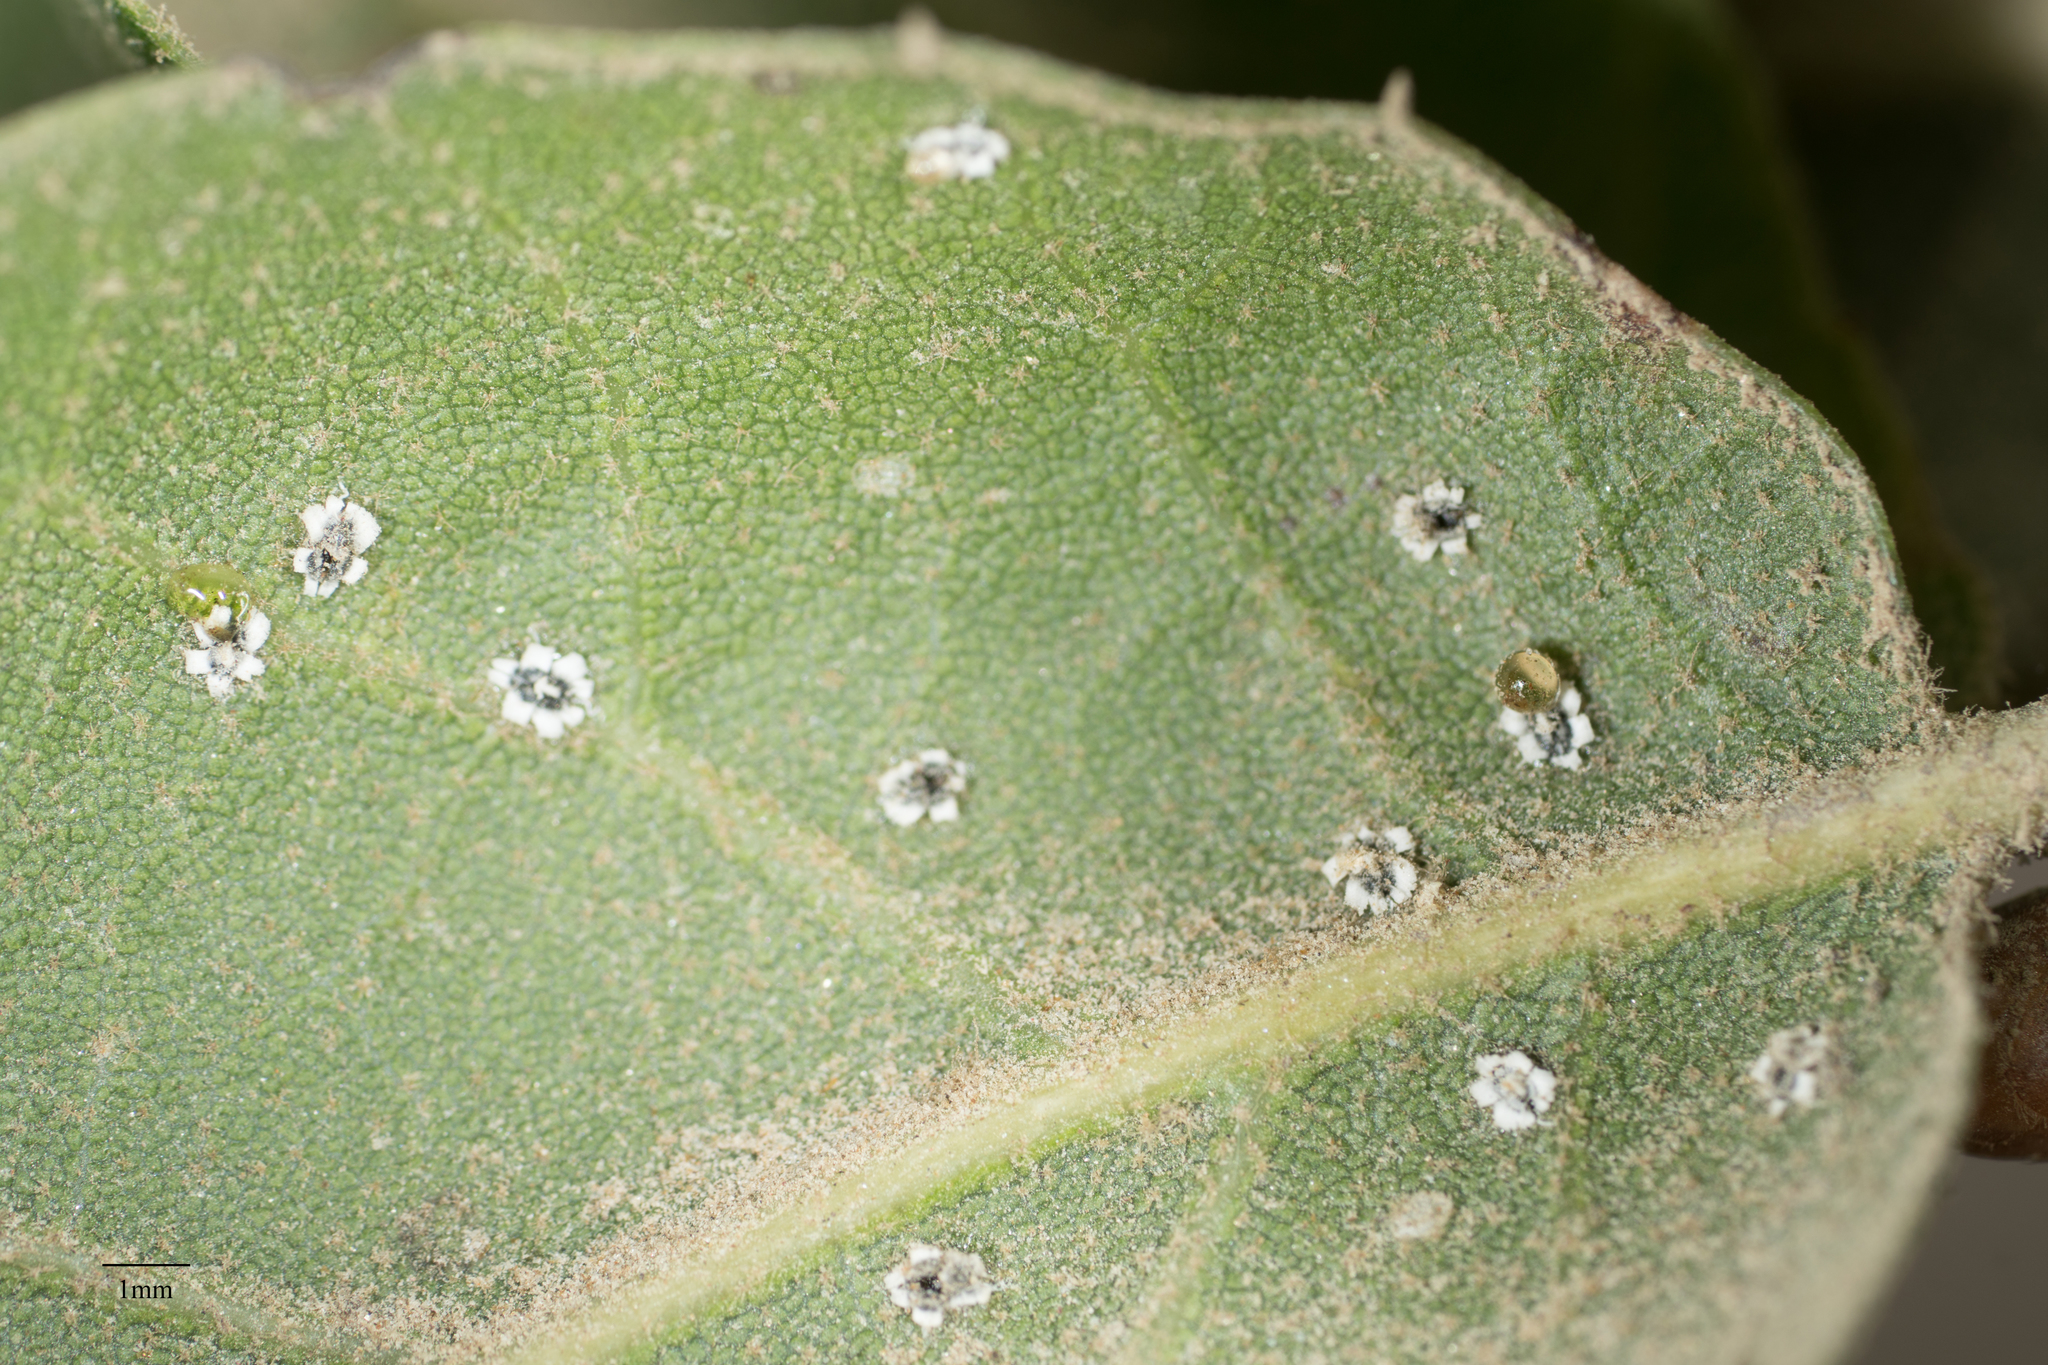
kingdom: Animalia
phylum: Arthropoda
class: Insecta
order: Hemiptera
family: Aleyrodidae
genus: Aleuroplatus
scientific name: Aleuroplatus coronata
